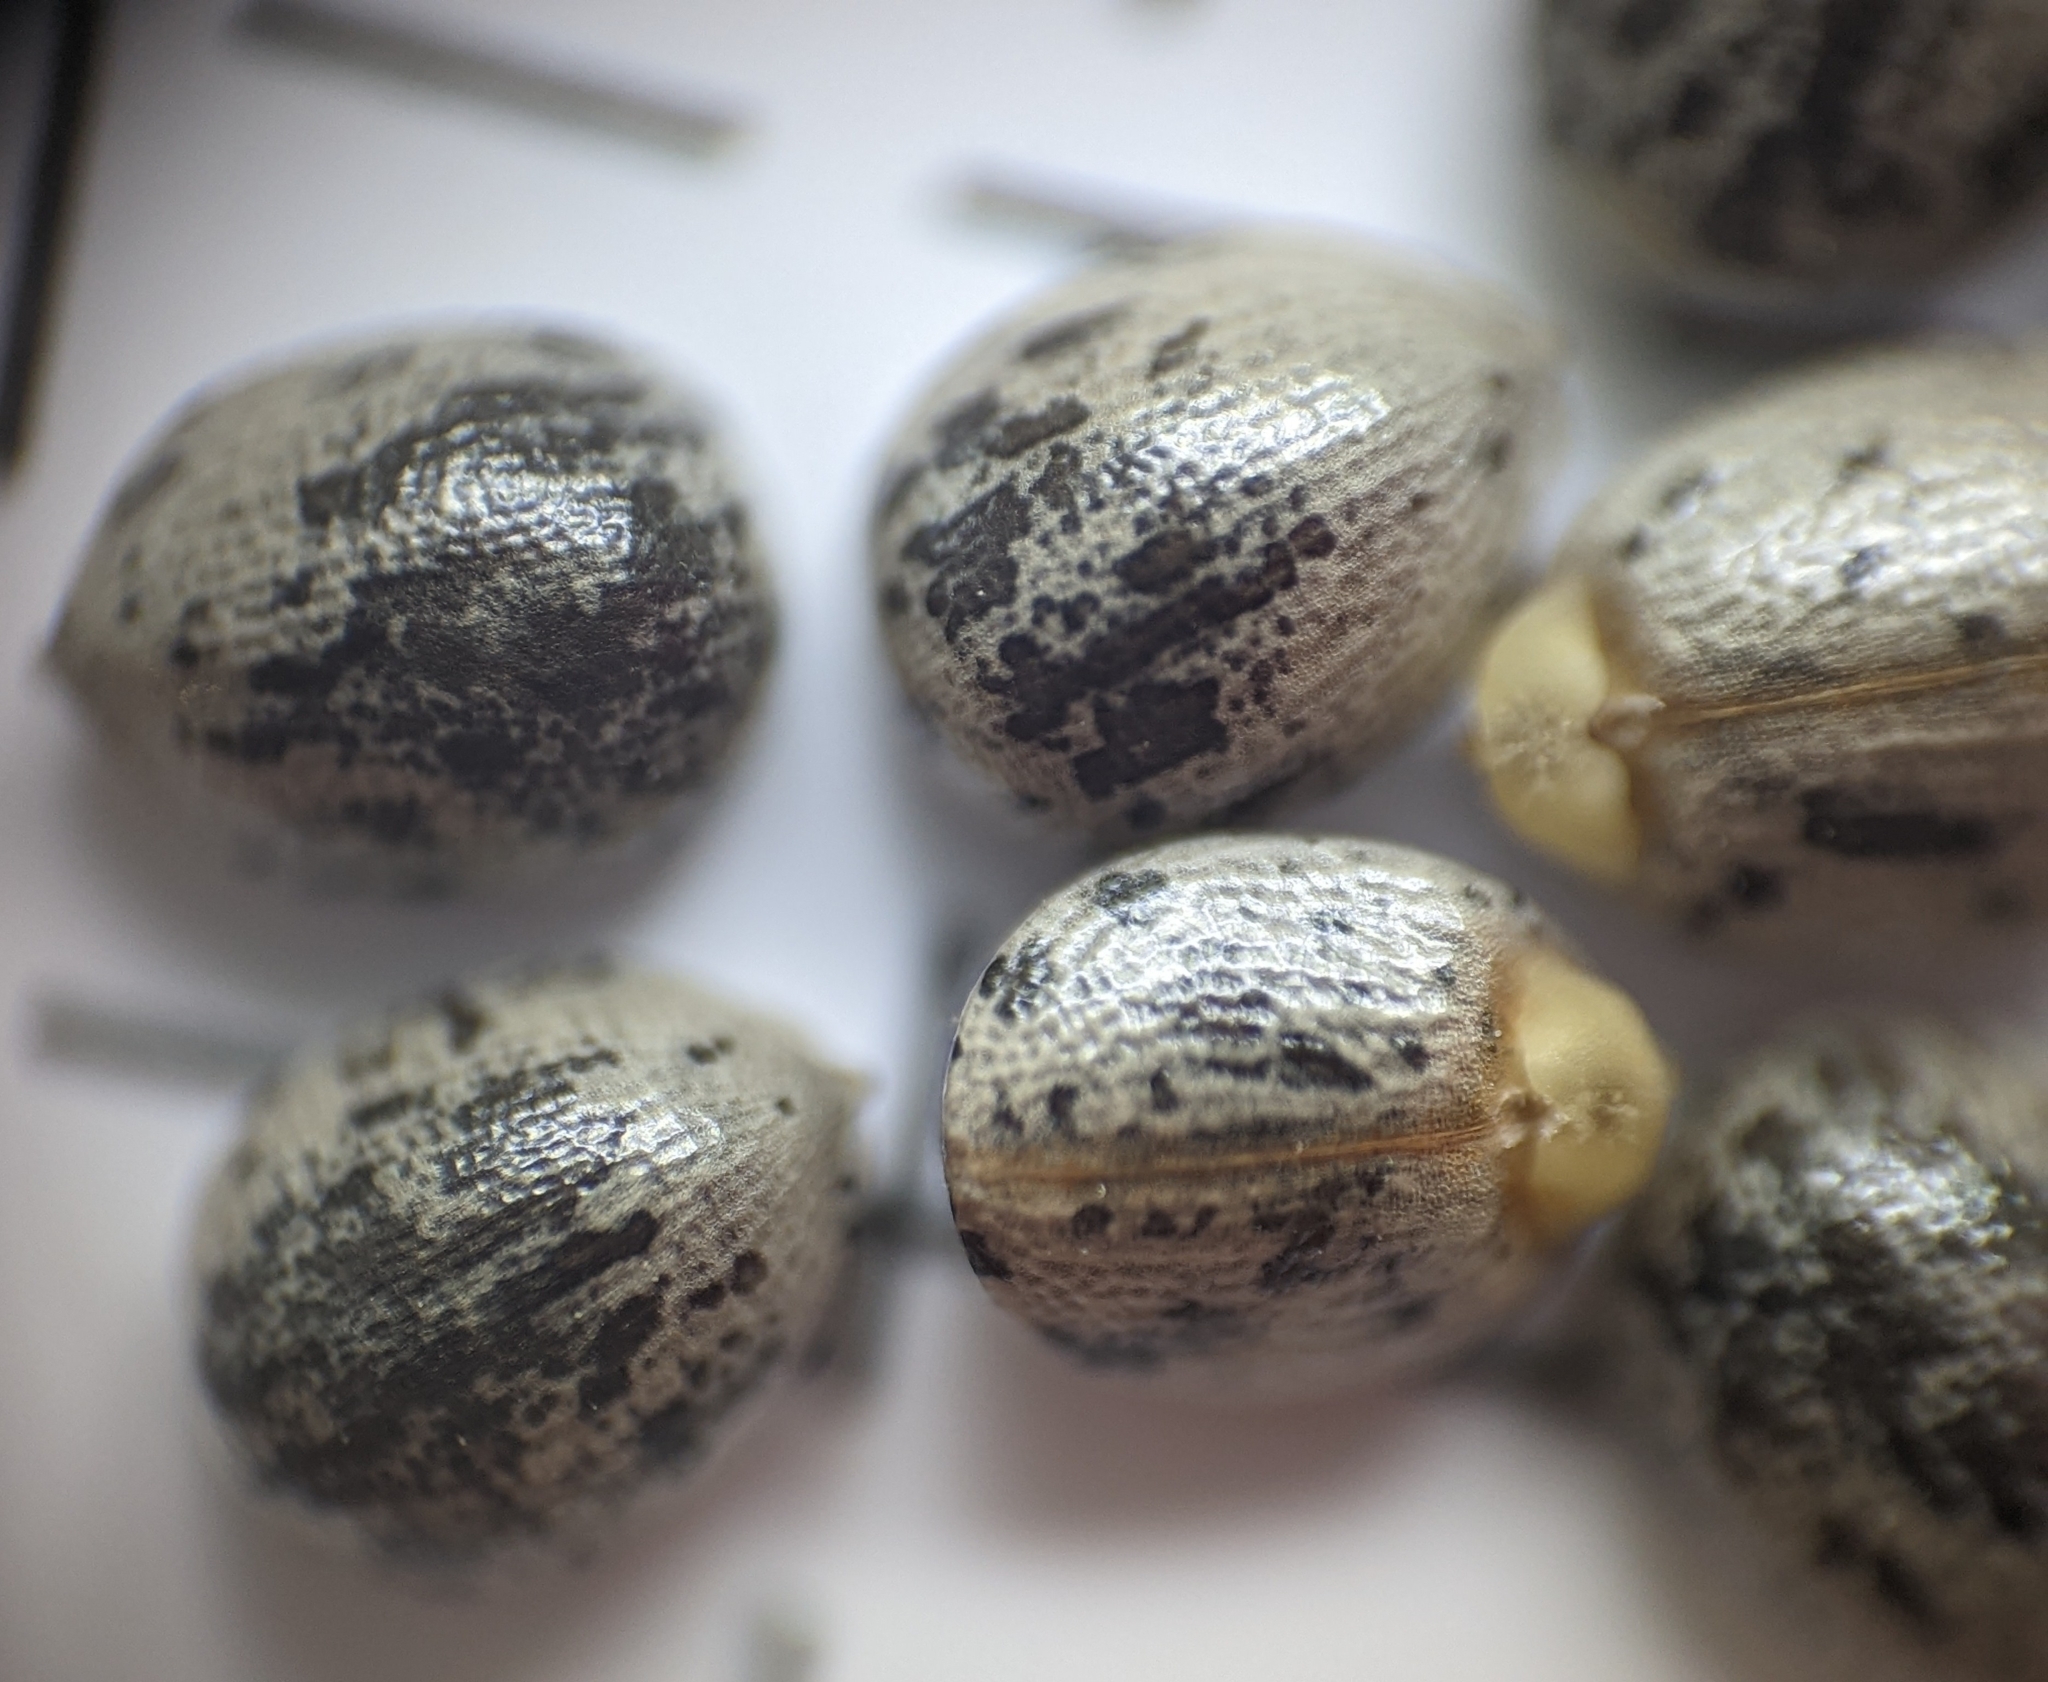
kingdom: Plantae
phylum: Tracheophyta
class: Magnoliopsida
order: Malpighiales
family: Euphorbiaceae
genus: Croton
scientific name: Croton glandulosus
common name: Tropic croton
